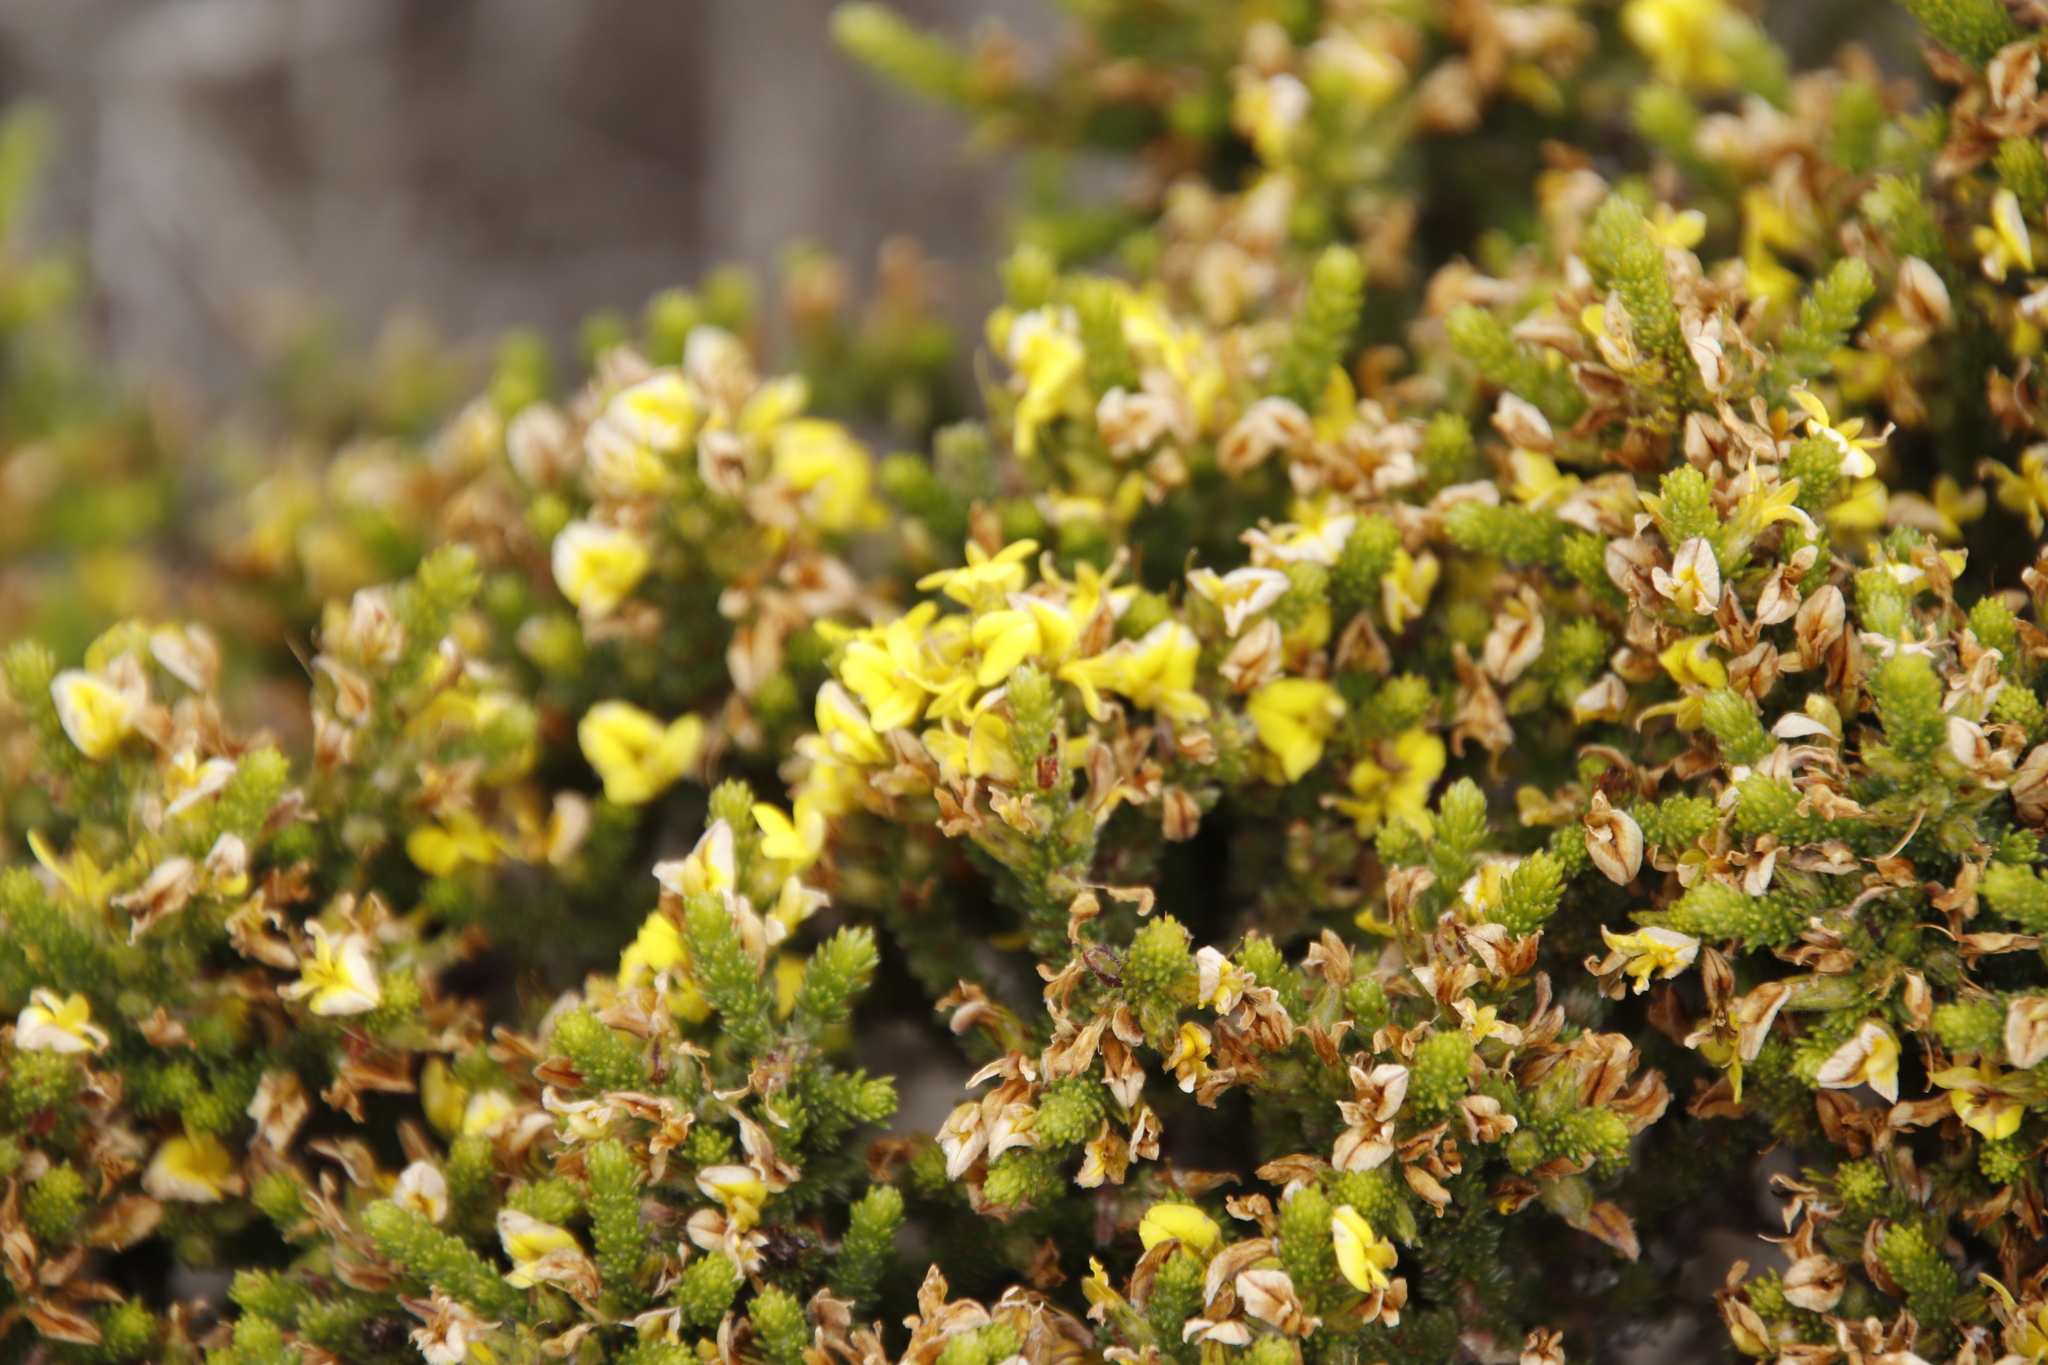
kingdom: Plantae
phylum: Tracheophyta
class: Magnoliopsida
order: Fabales
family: Fabaceae
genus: Aspalathus
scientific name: Aspalathus ericifolia
